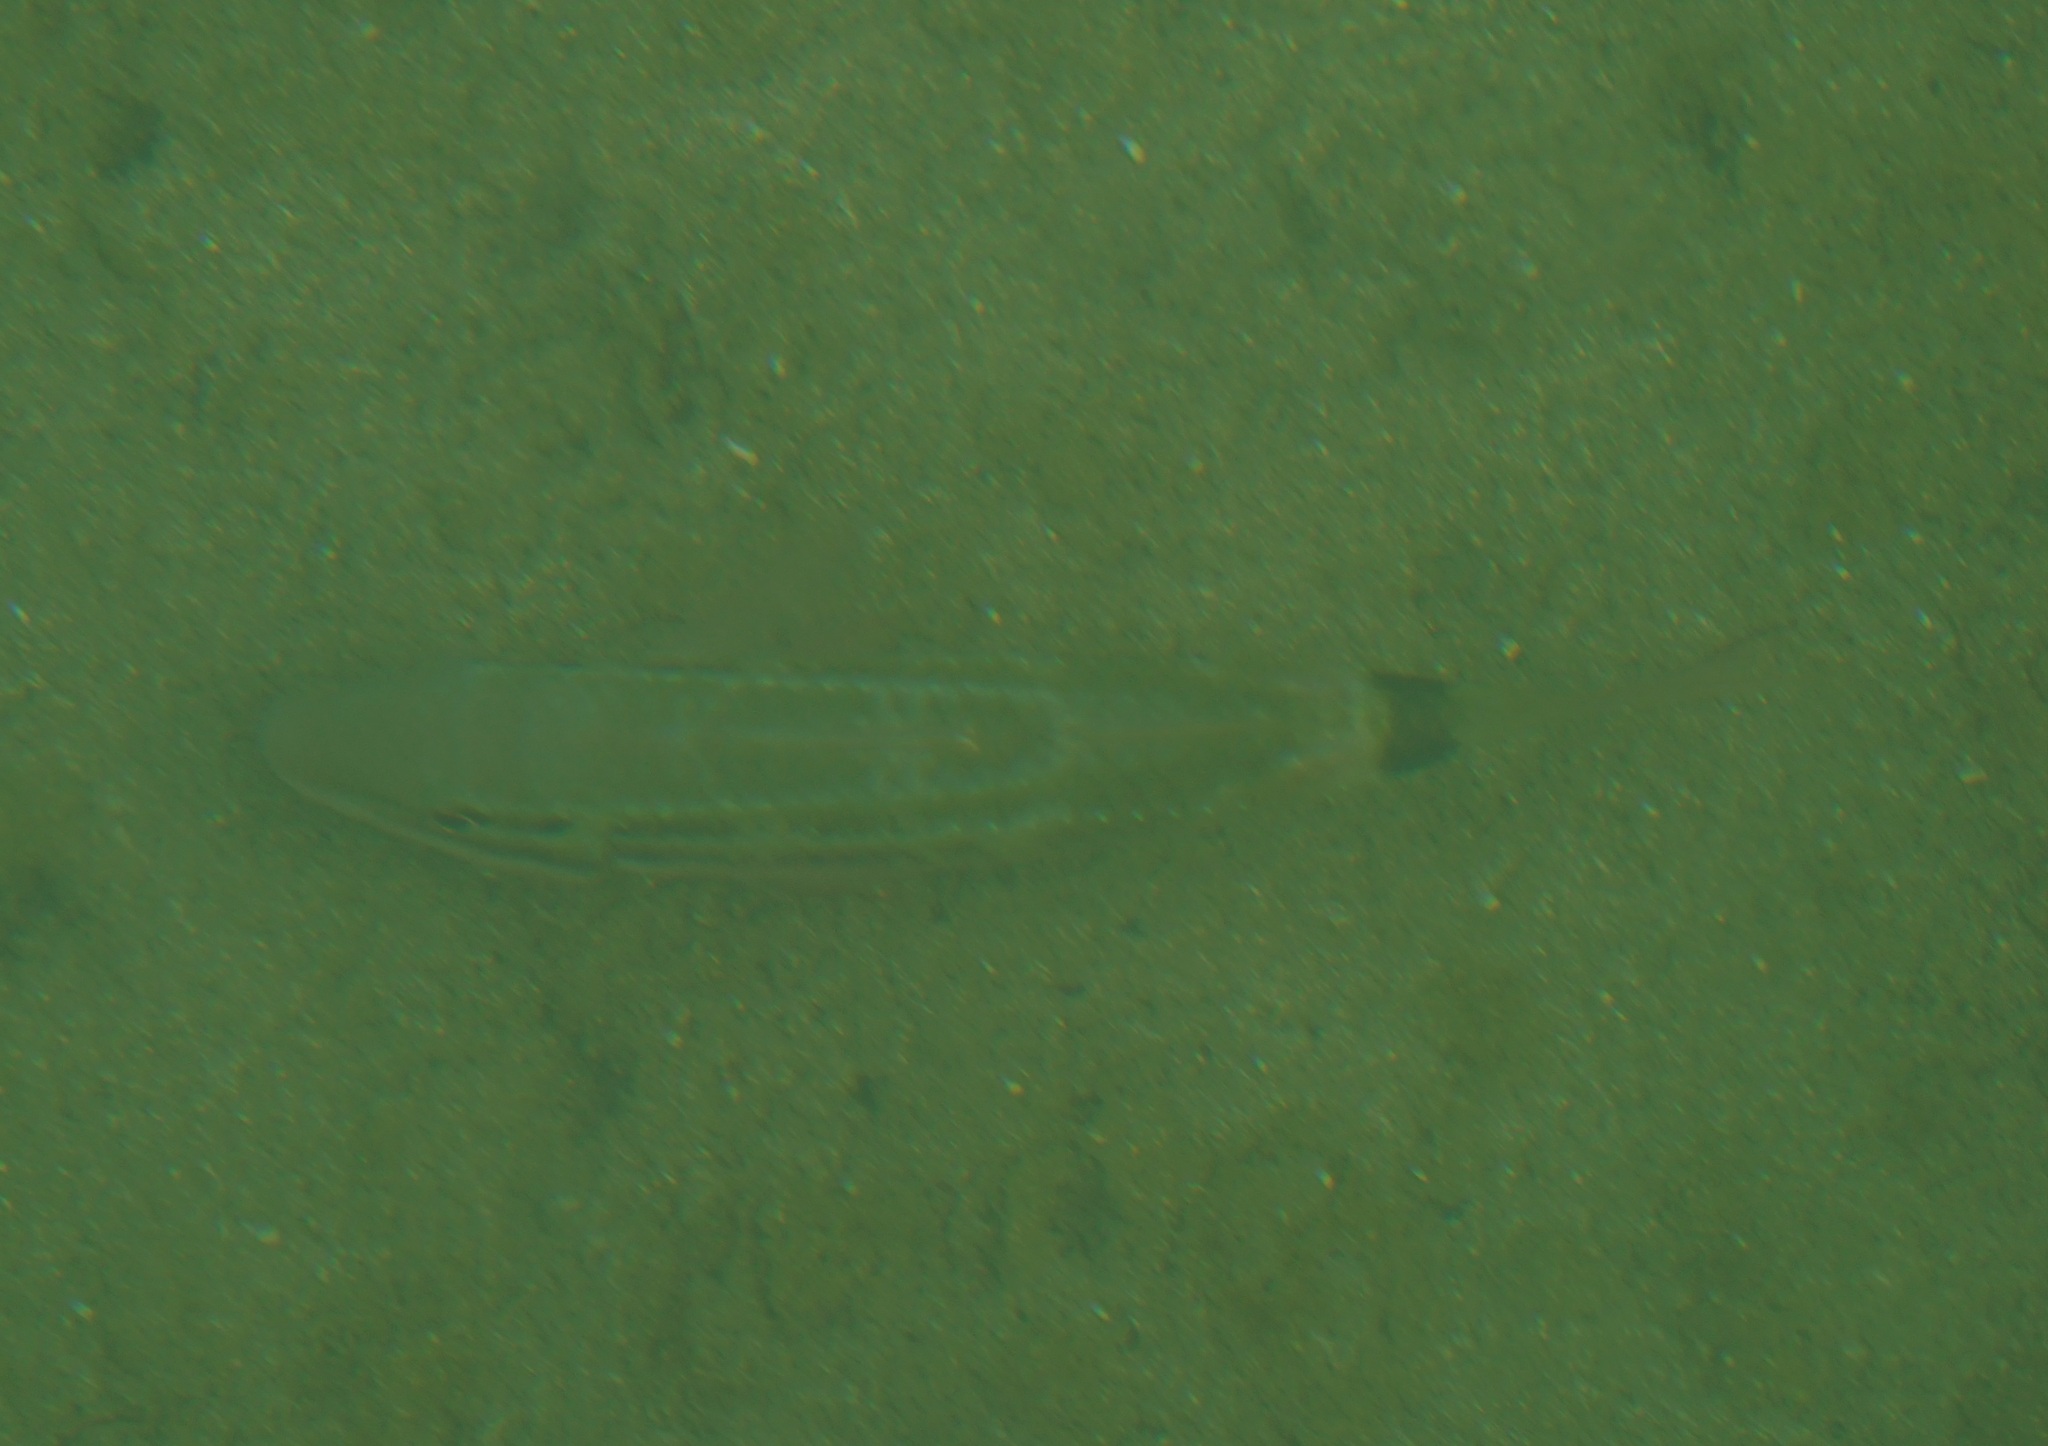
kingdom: Animalia
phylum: Chordata
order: Perciformes
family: Mullidae
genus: Parupeneus
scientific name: Parupeneus spilurus
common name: Blackspot goatfish
